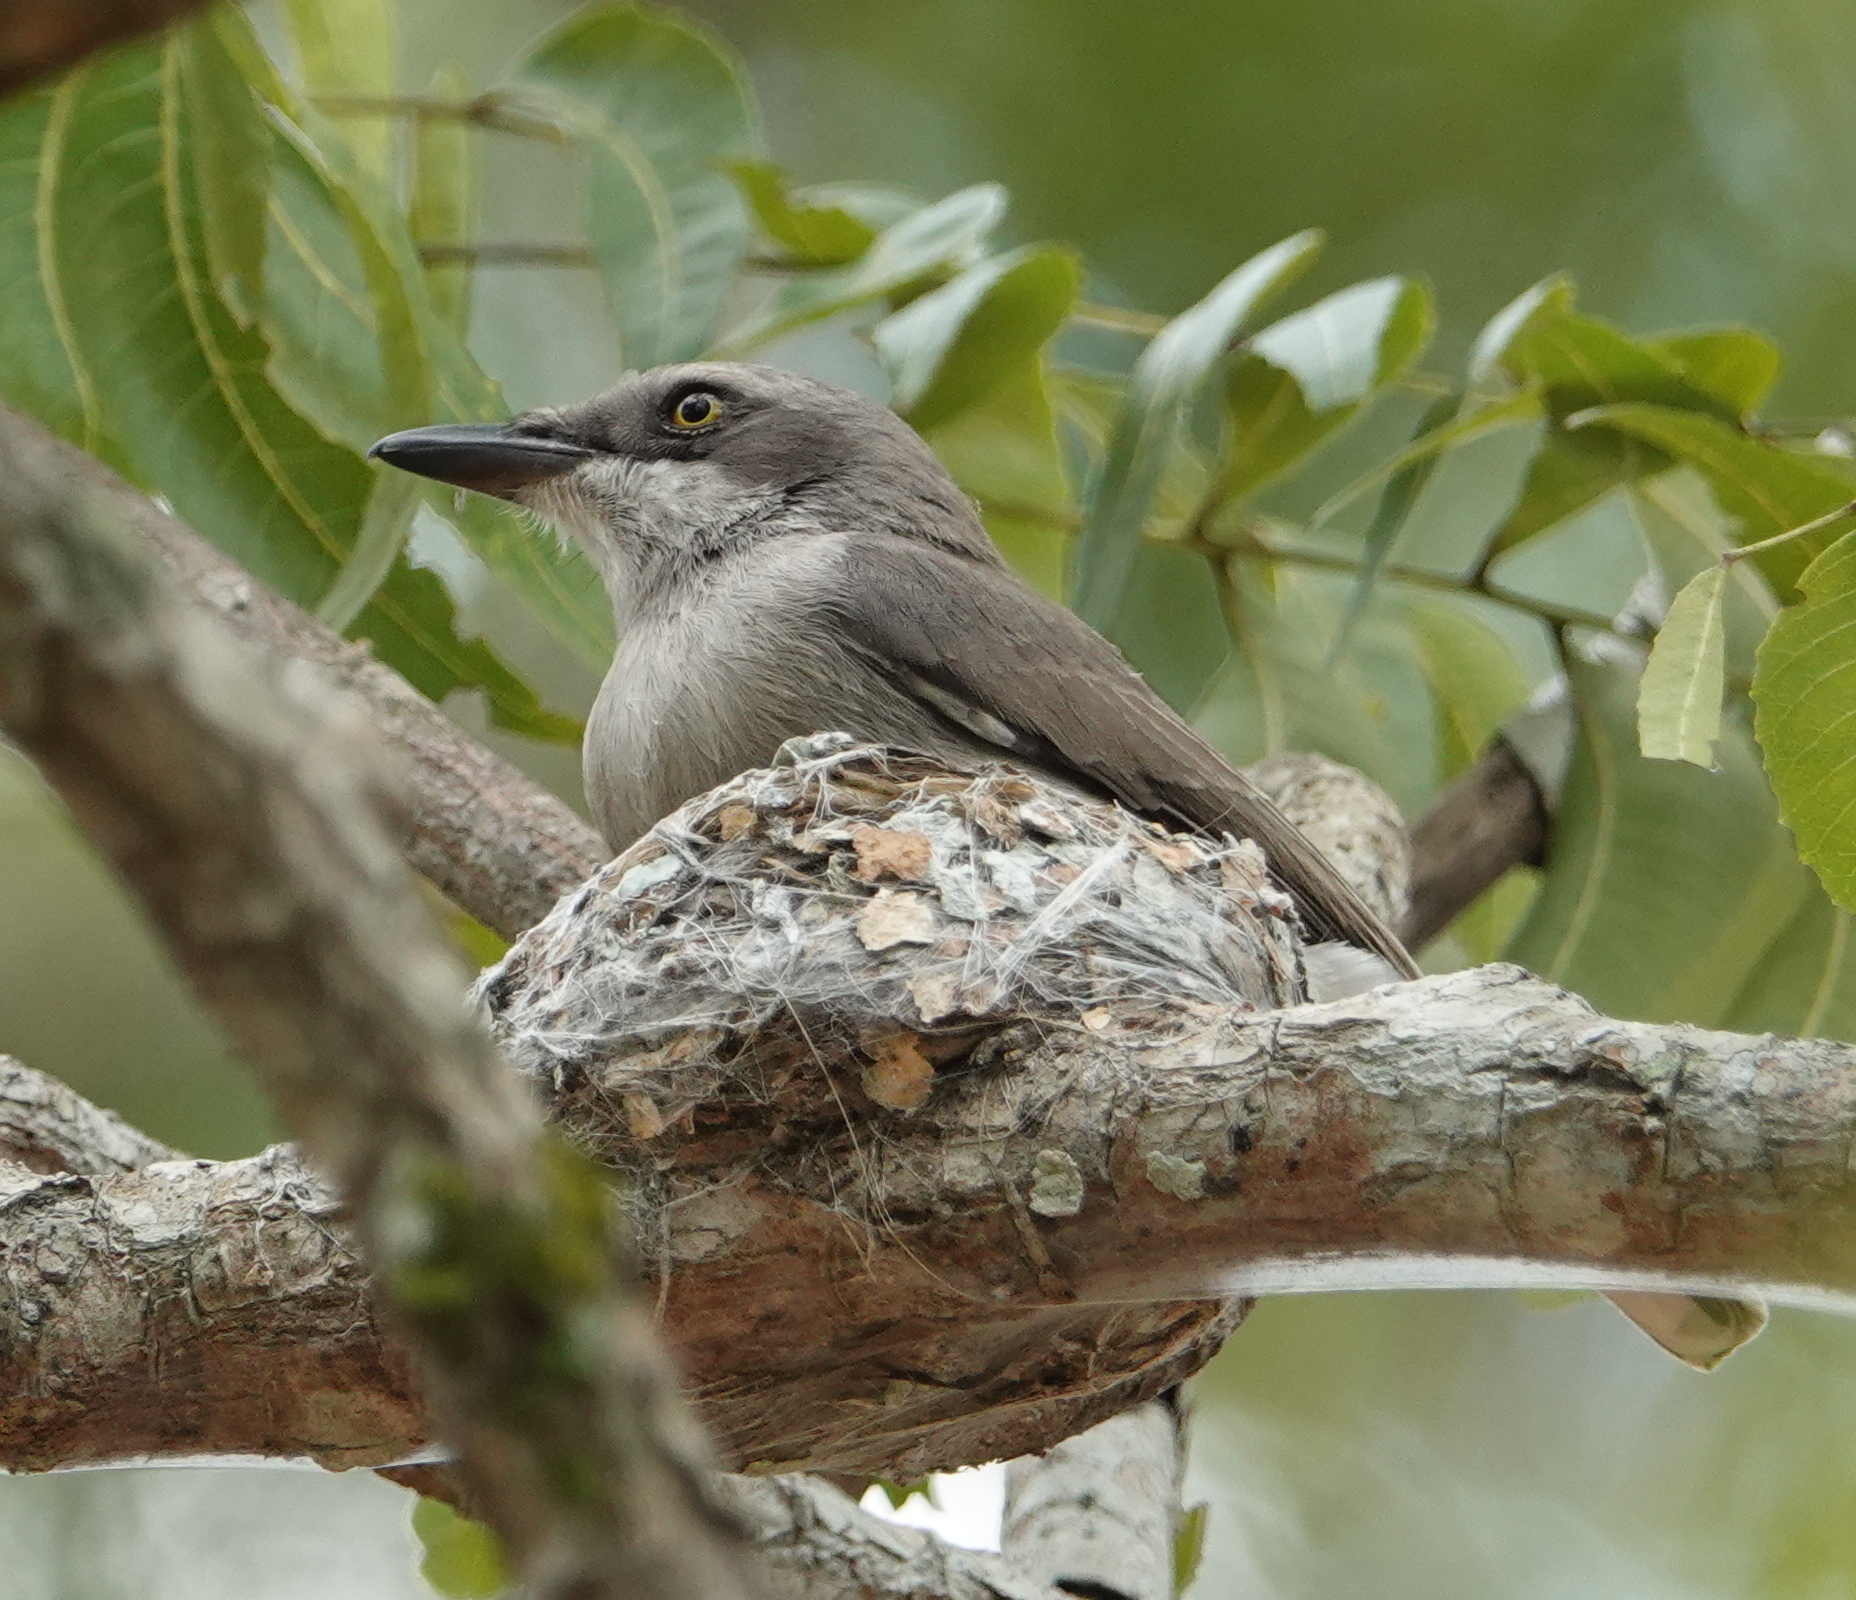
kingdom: Animalia
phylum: Chordata
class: Aves
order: Passeriformes
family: Tephrodornithidae
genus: Tephrodornis
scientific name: Tephrodornis affinis
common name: Sri lanka woodshrike
